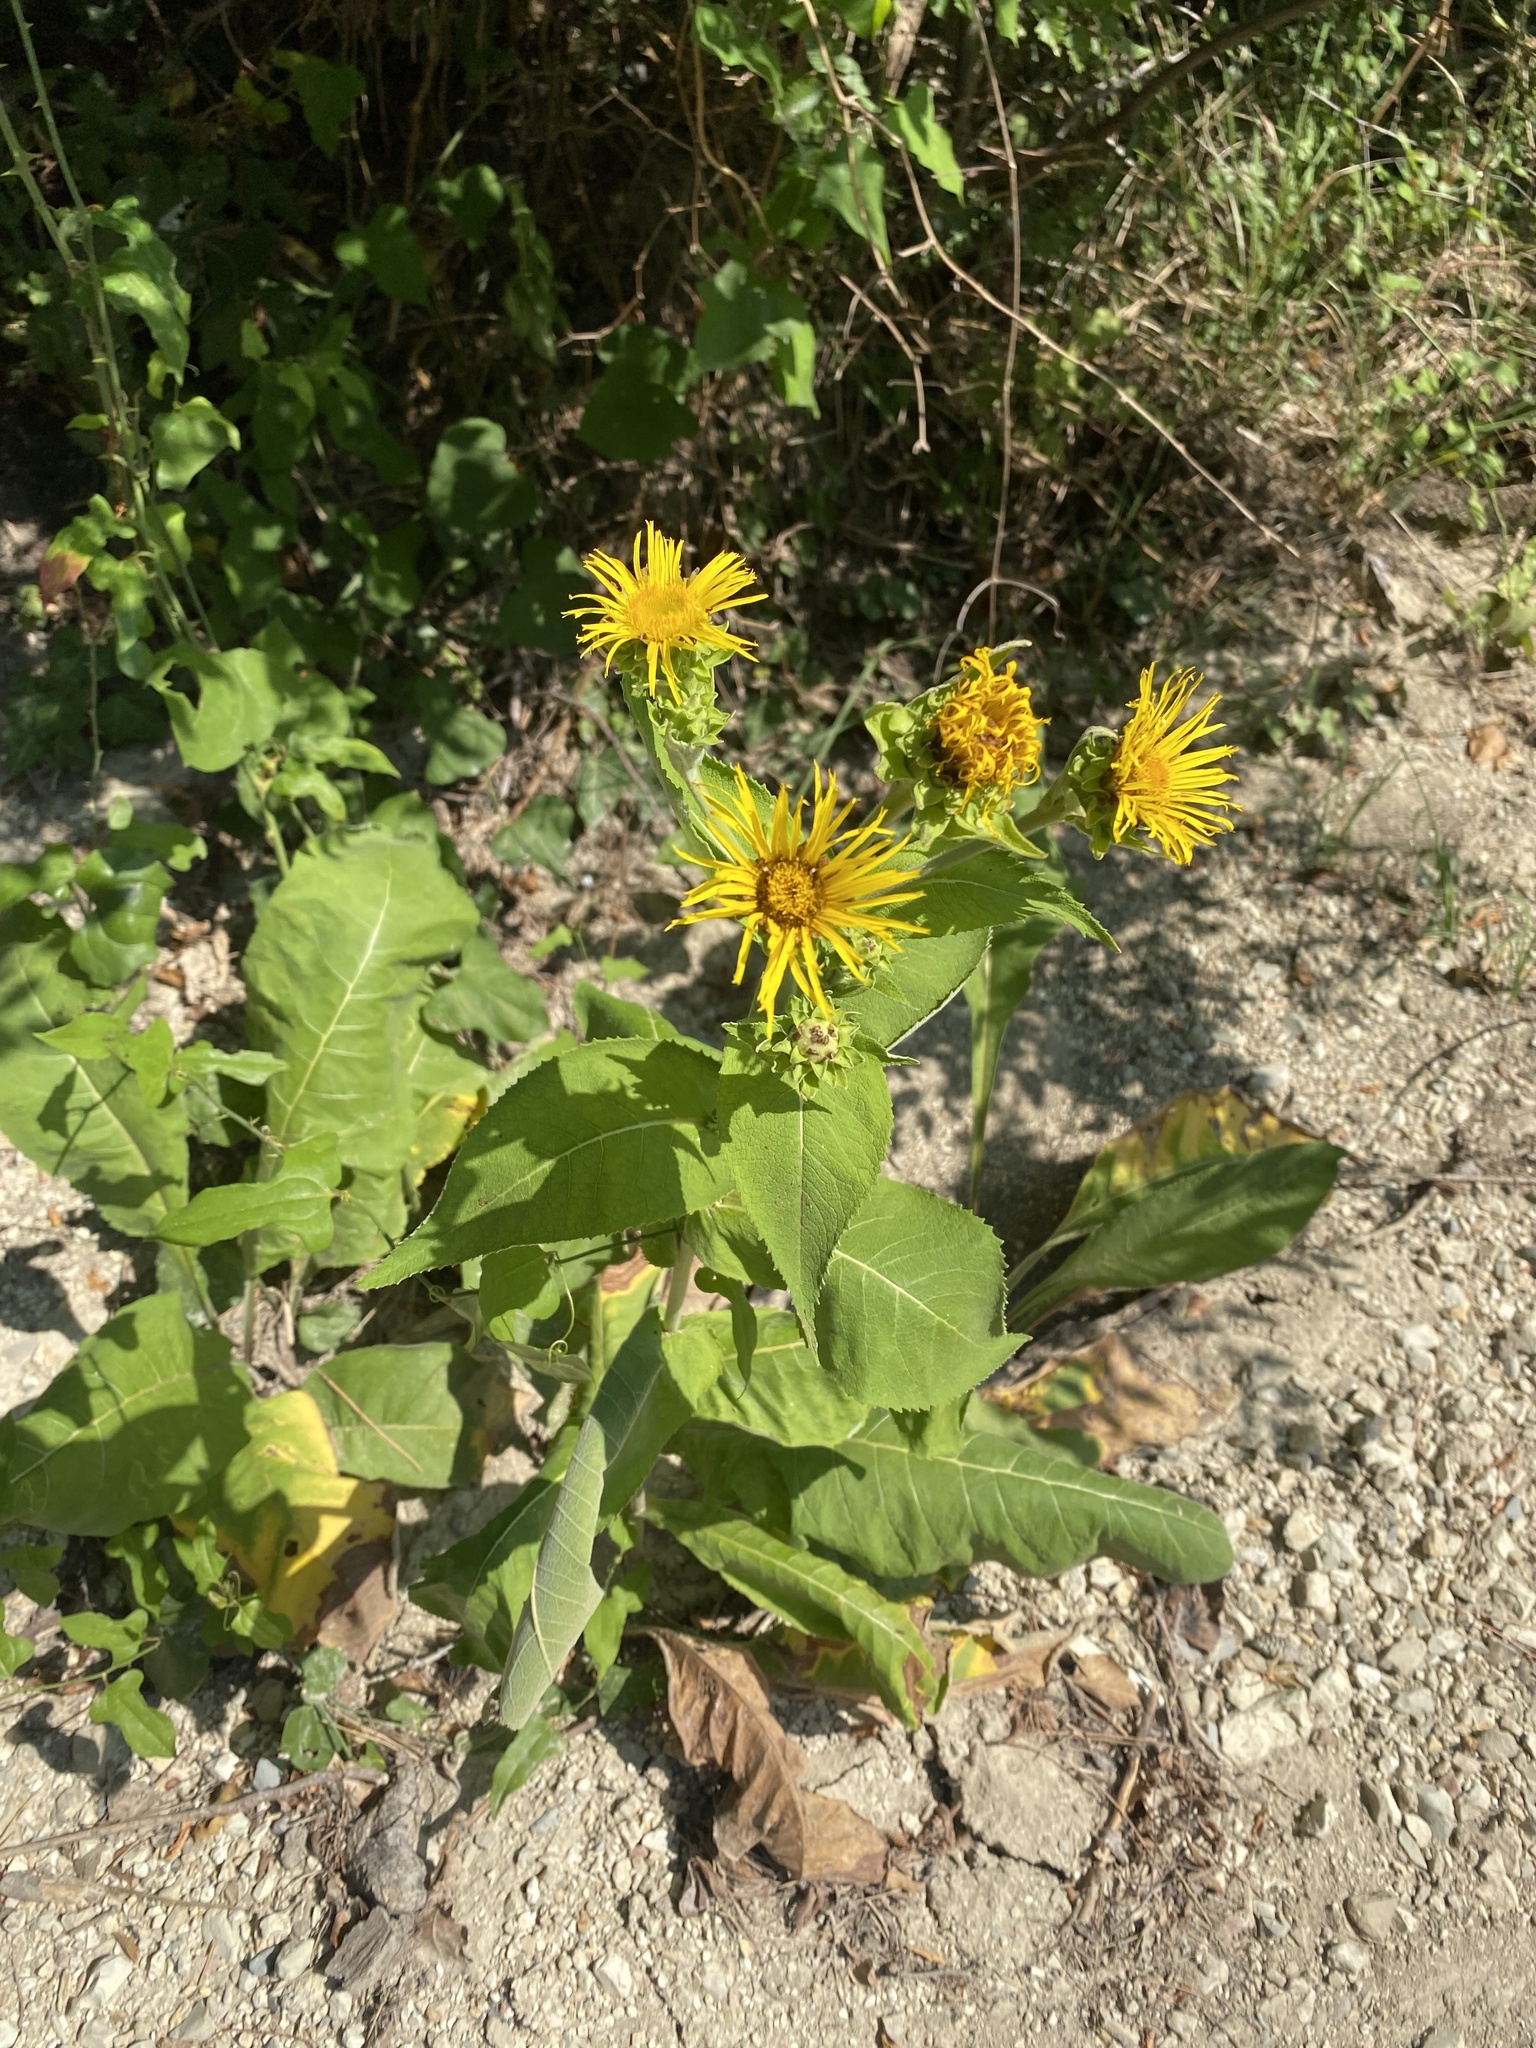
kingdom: Plantae
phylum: Tracheophyta
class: Magnoliopsida
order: Asterales
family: Asteraceae
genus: Inula
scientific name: Inula helenium
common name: Elecampane
